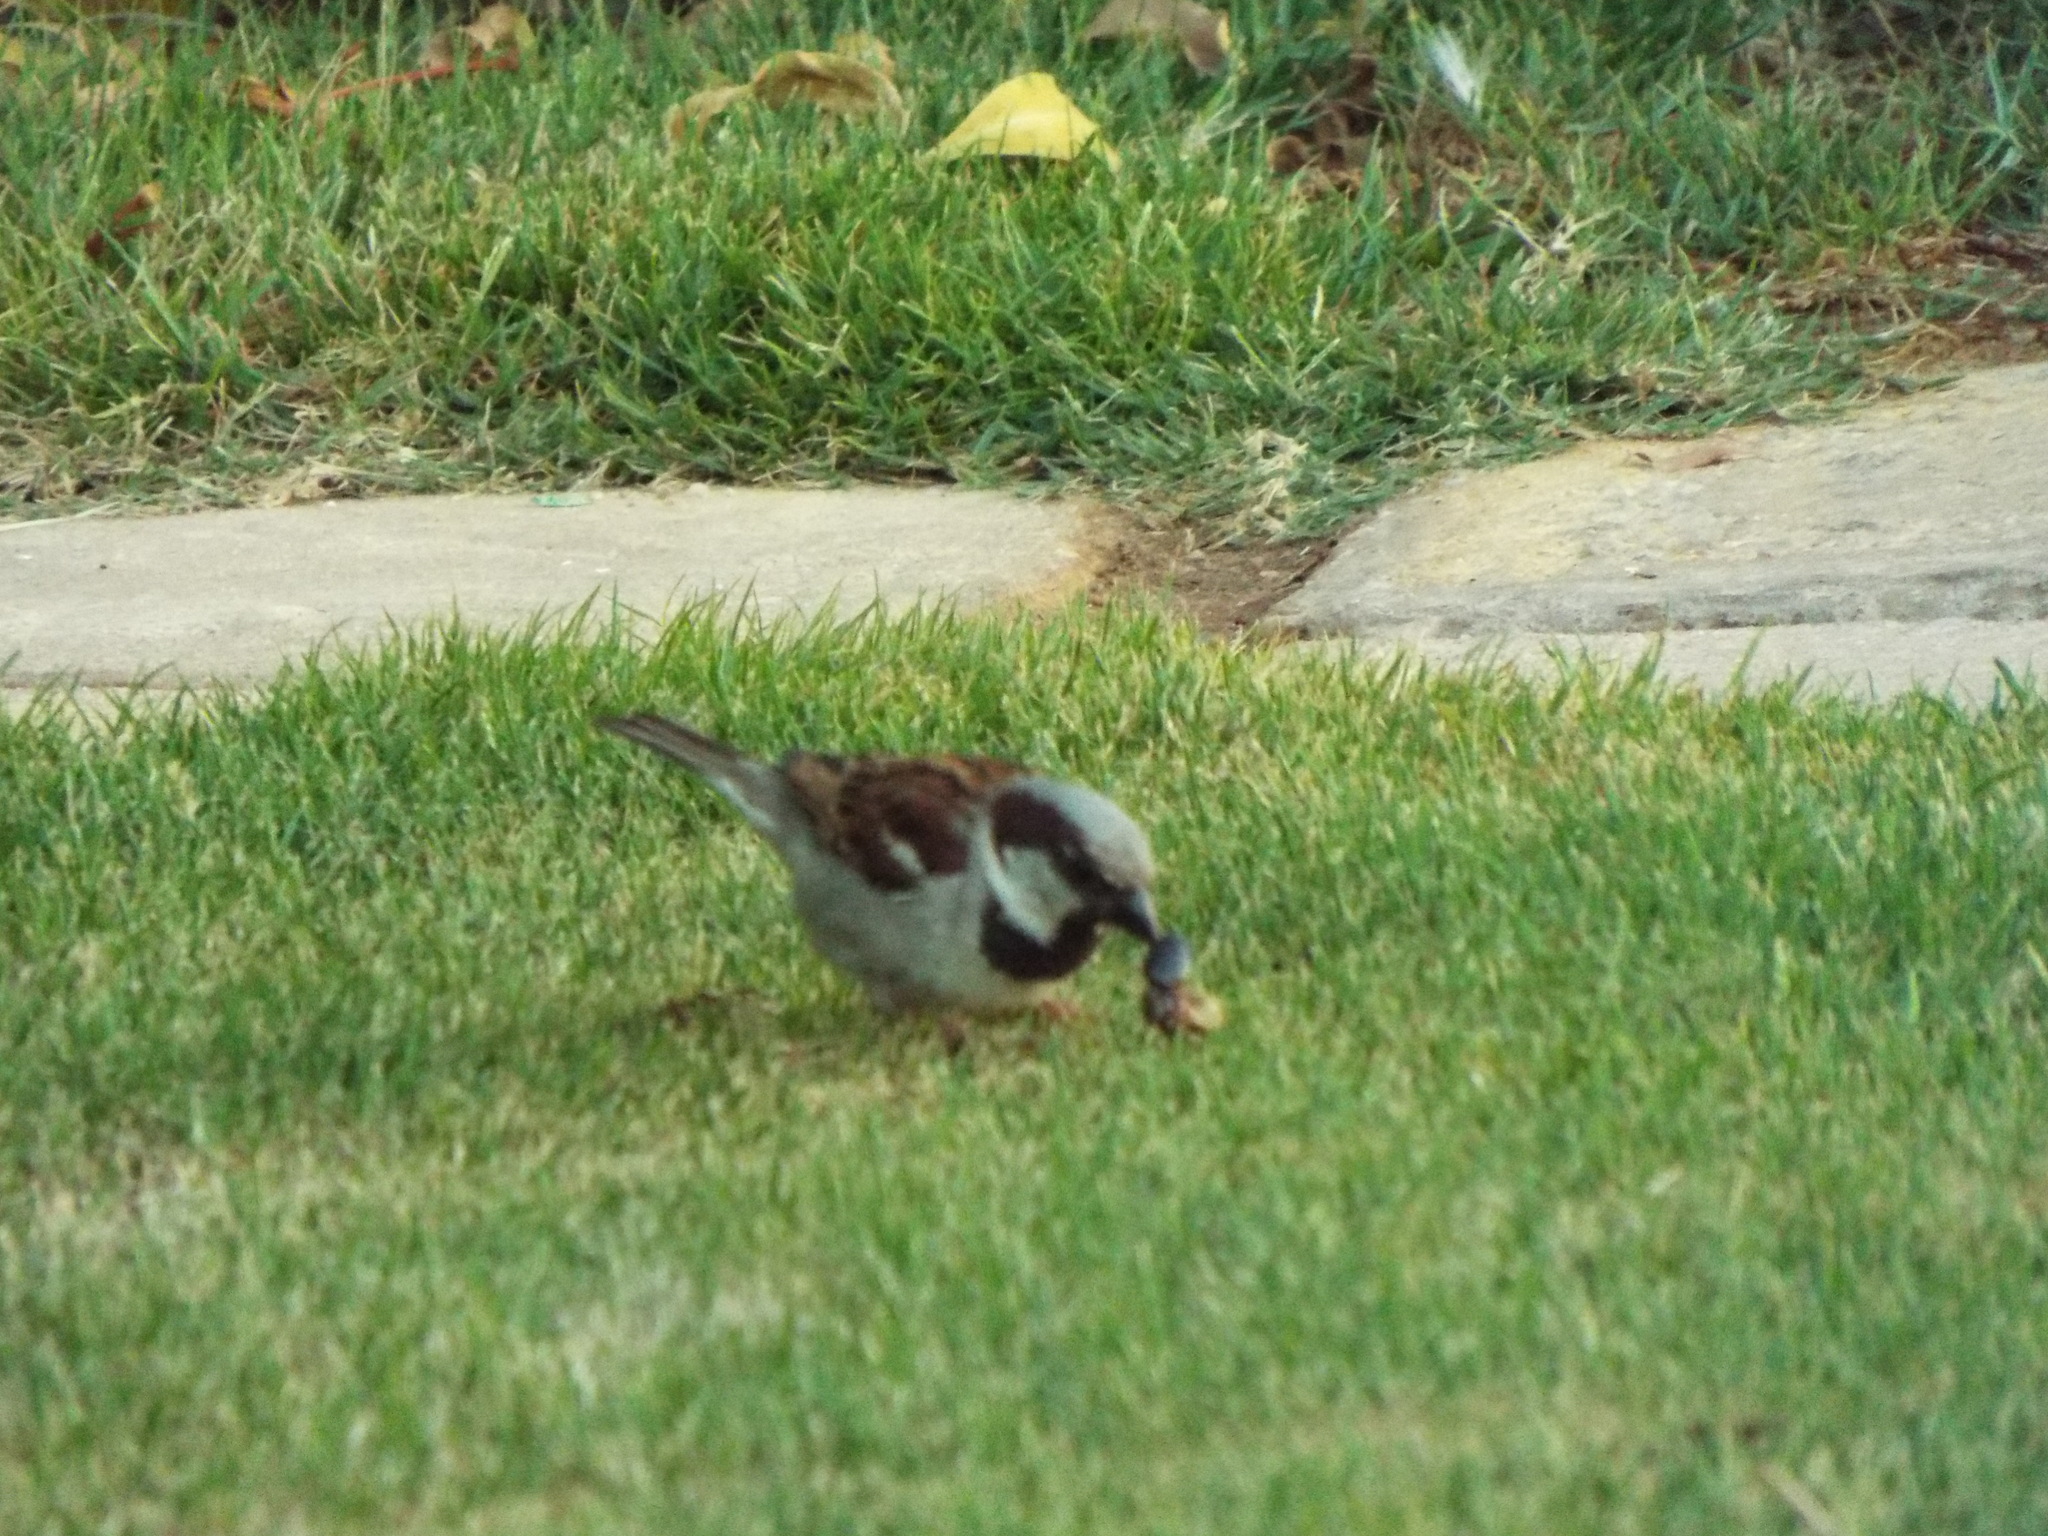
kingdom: Animalia
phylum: Chordata
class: Aves
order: Passeriformes
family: Passeridae
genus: Passer
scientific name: Passer domesticus
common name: House sparrow
